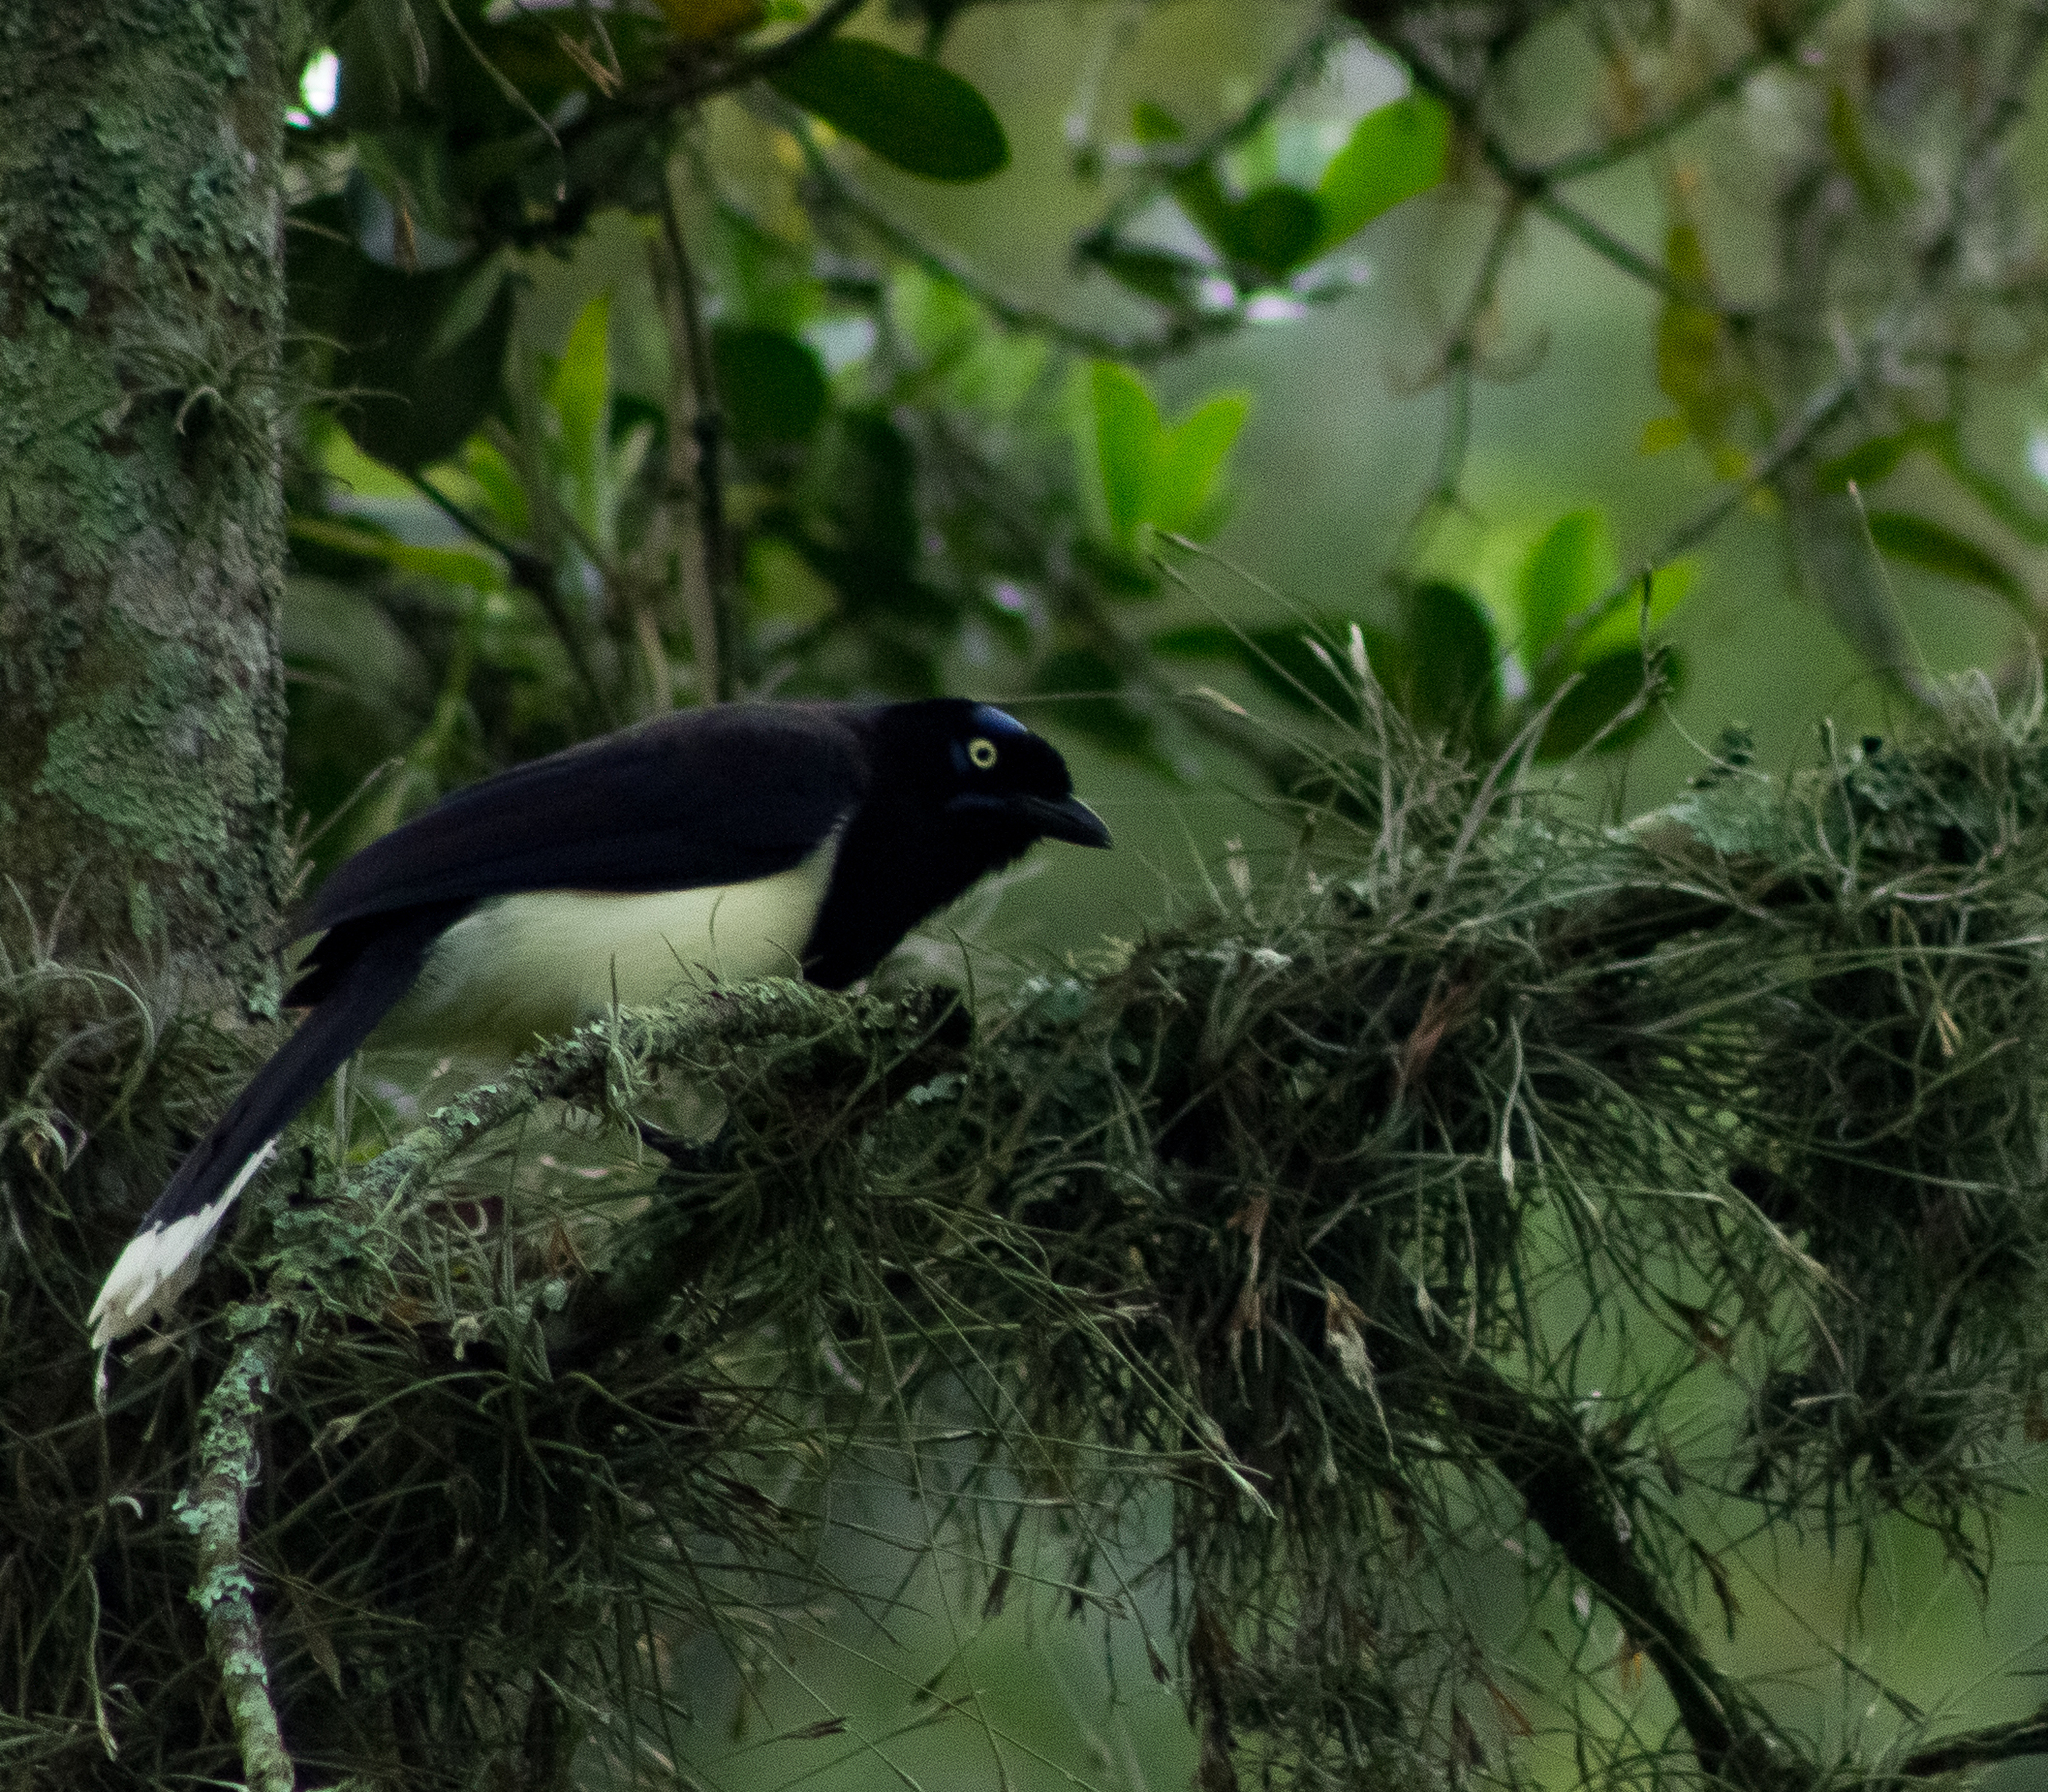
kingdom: Animalia
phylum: Chordata
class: Aves
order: Passeriformes
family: Corvidae
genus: Cyanocorax
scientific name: Cyanocorax affinis
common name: Black-chested jay
